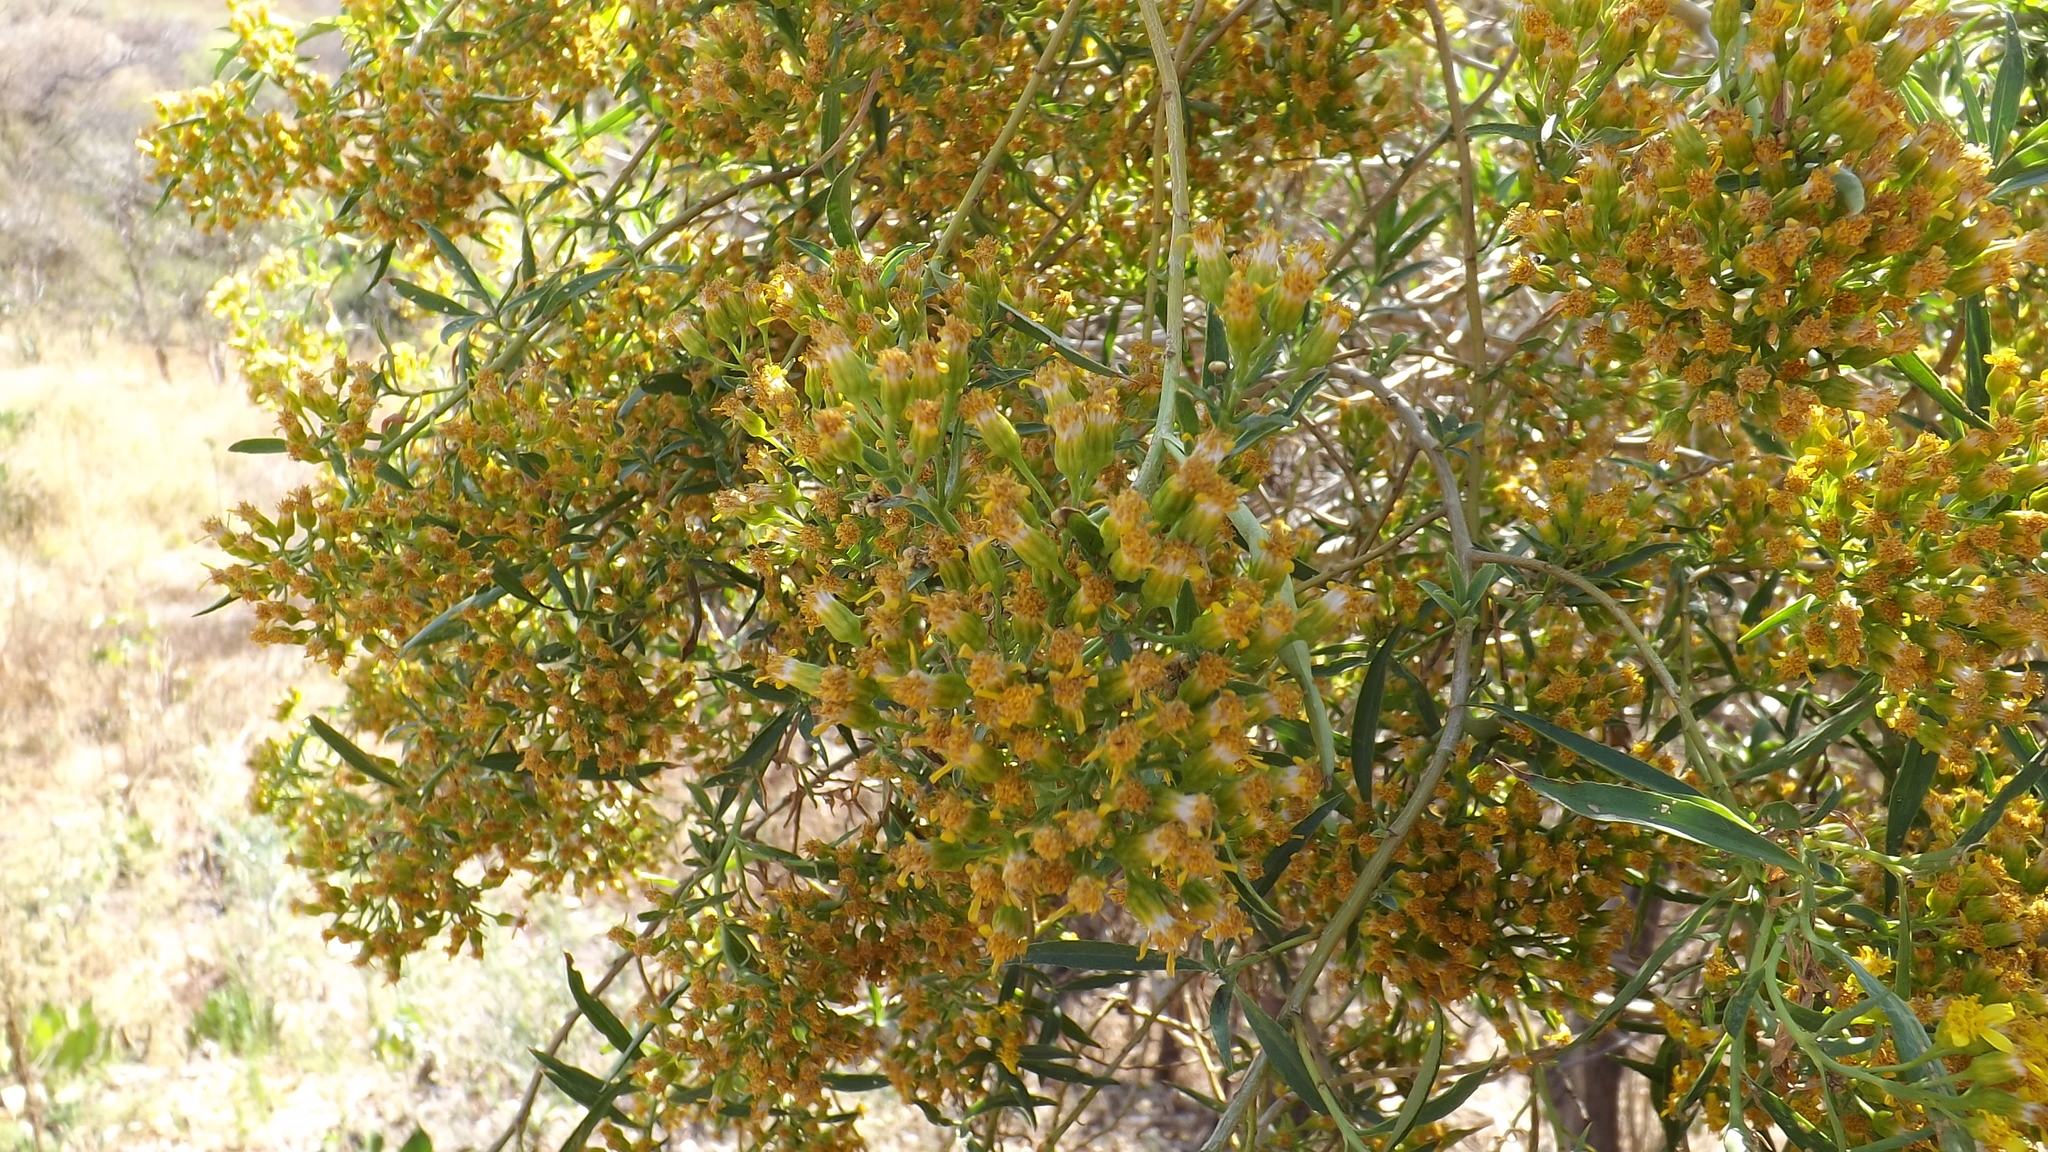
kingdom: Plantae
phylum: Tracheophyta
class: Magnoliopsida
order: Asterales
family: Asteraceae
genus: Barkleyanthus
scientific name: Barkleyanthus salicifolius
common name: Willow ragwort
